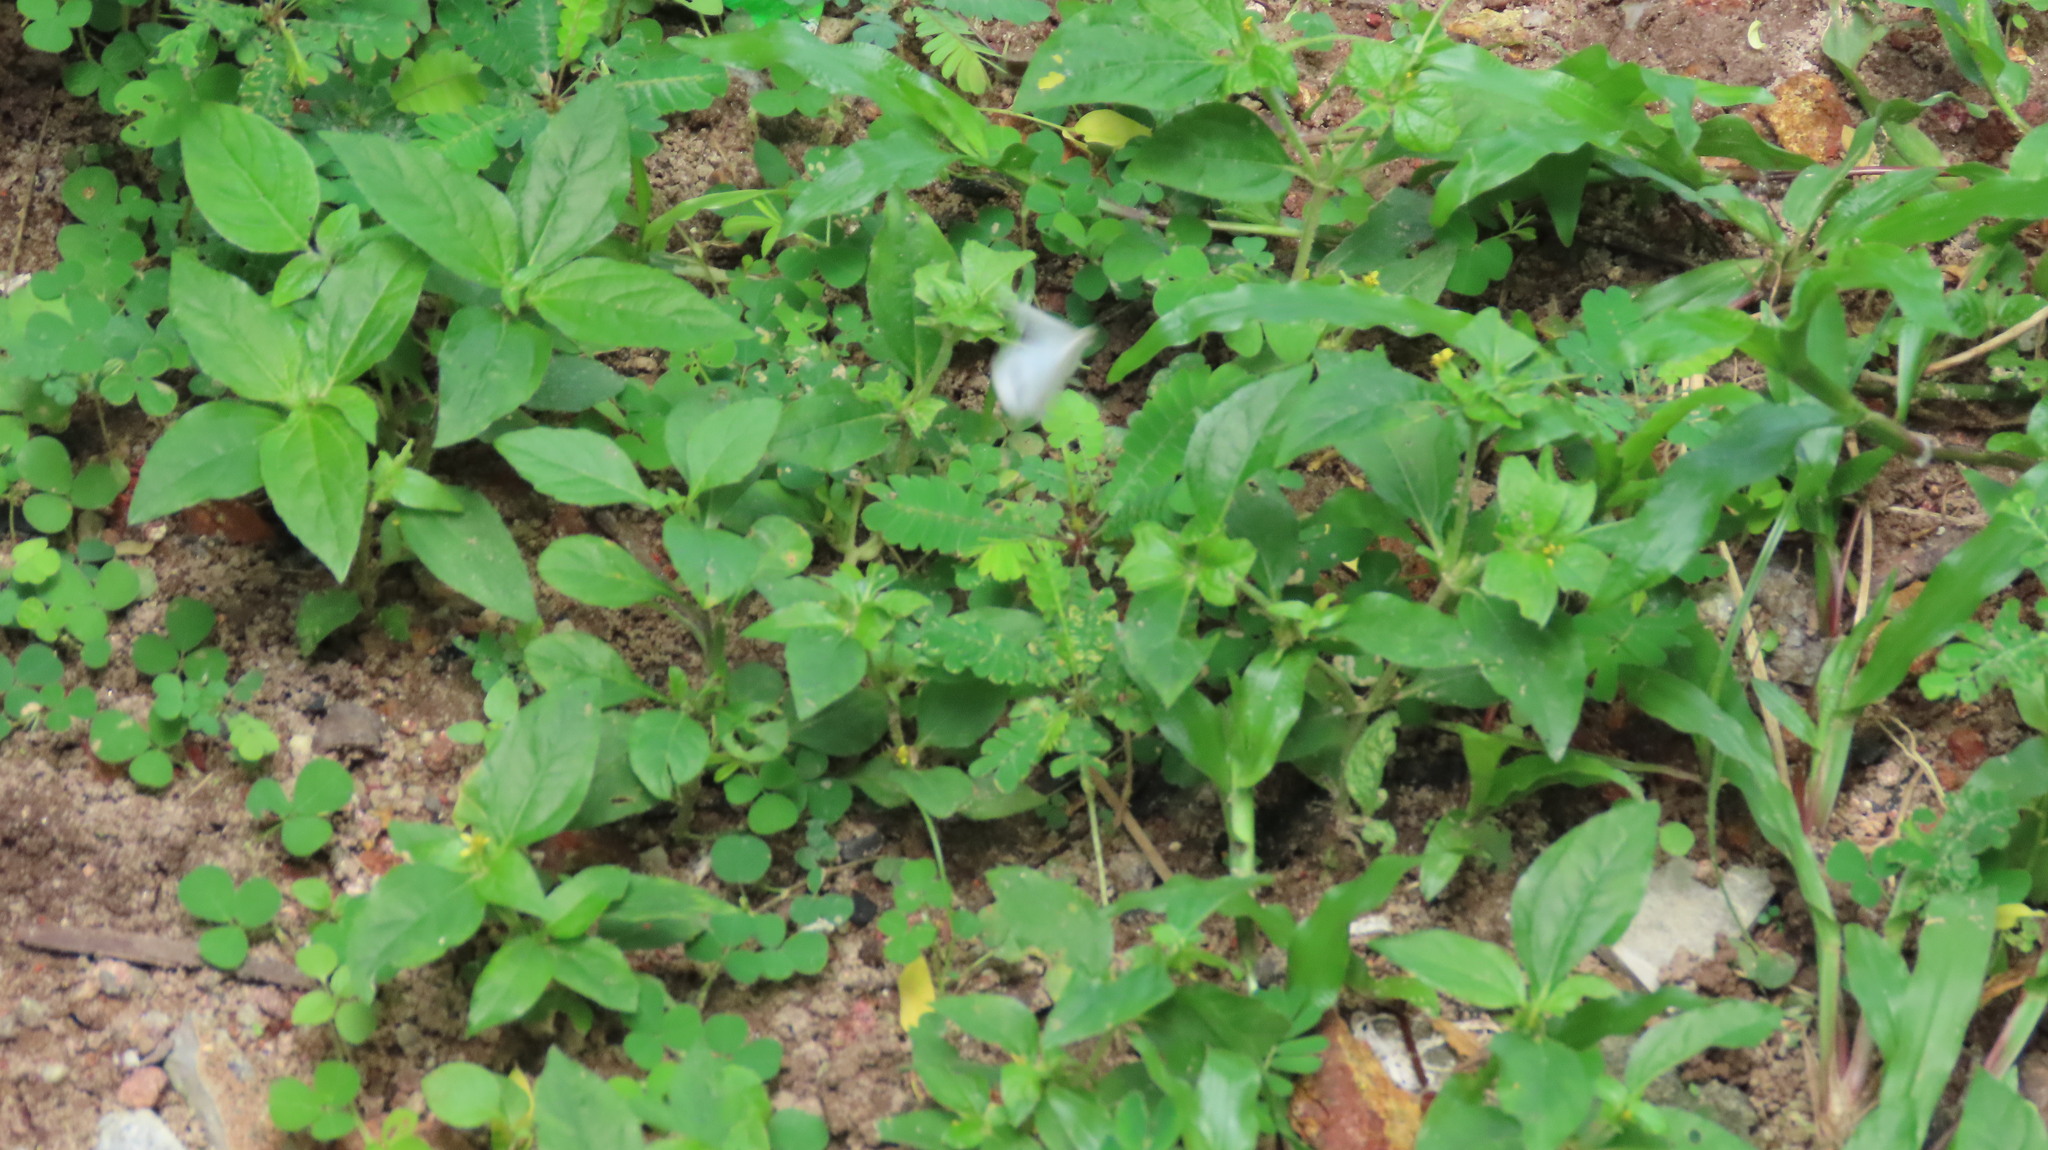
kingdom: Animalia
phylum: Arthropoda
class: Insecta
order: Lepidoptera
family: Pieridae
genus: Leptosia
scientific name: Leptosia nina
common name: Psyche
